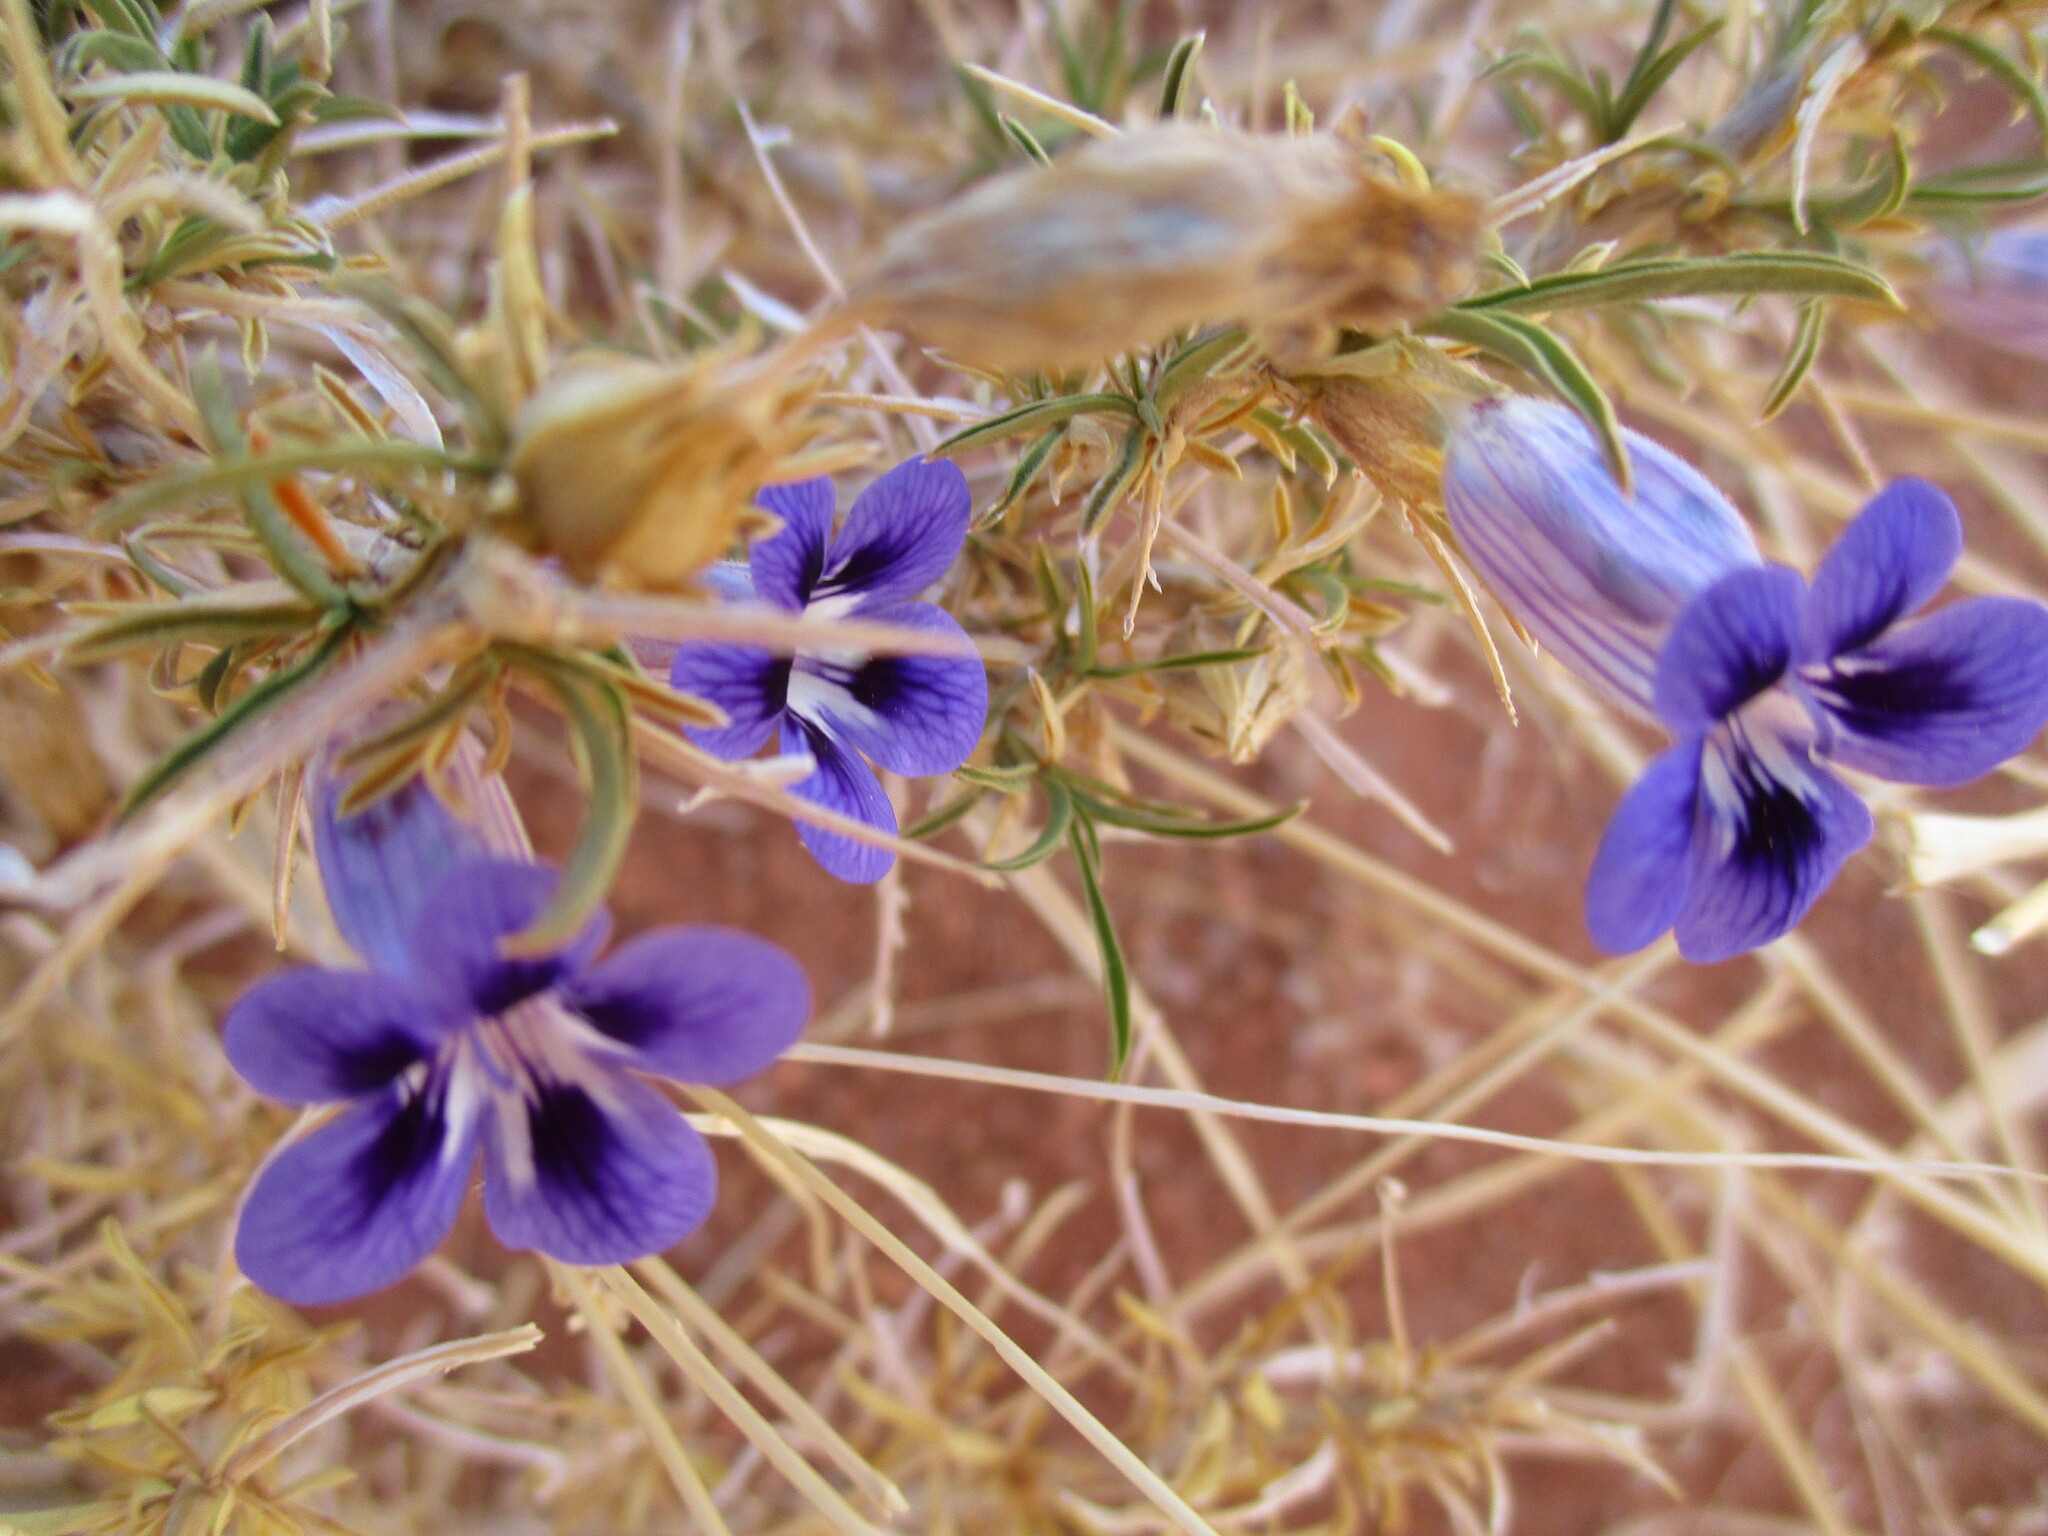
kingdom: Plantae
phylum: Tracheophyta
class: Magnoliopsida
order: Lamiales
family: Scrophulariaceae
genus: Aptosimum
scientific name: Aptosimum spinescens
